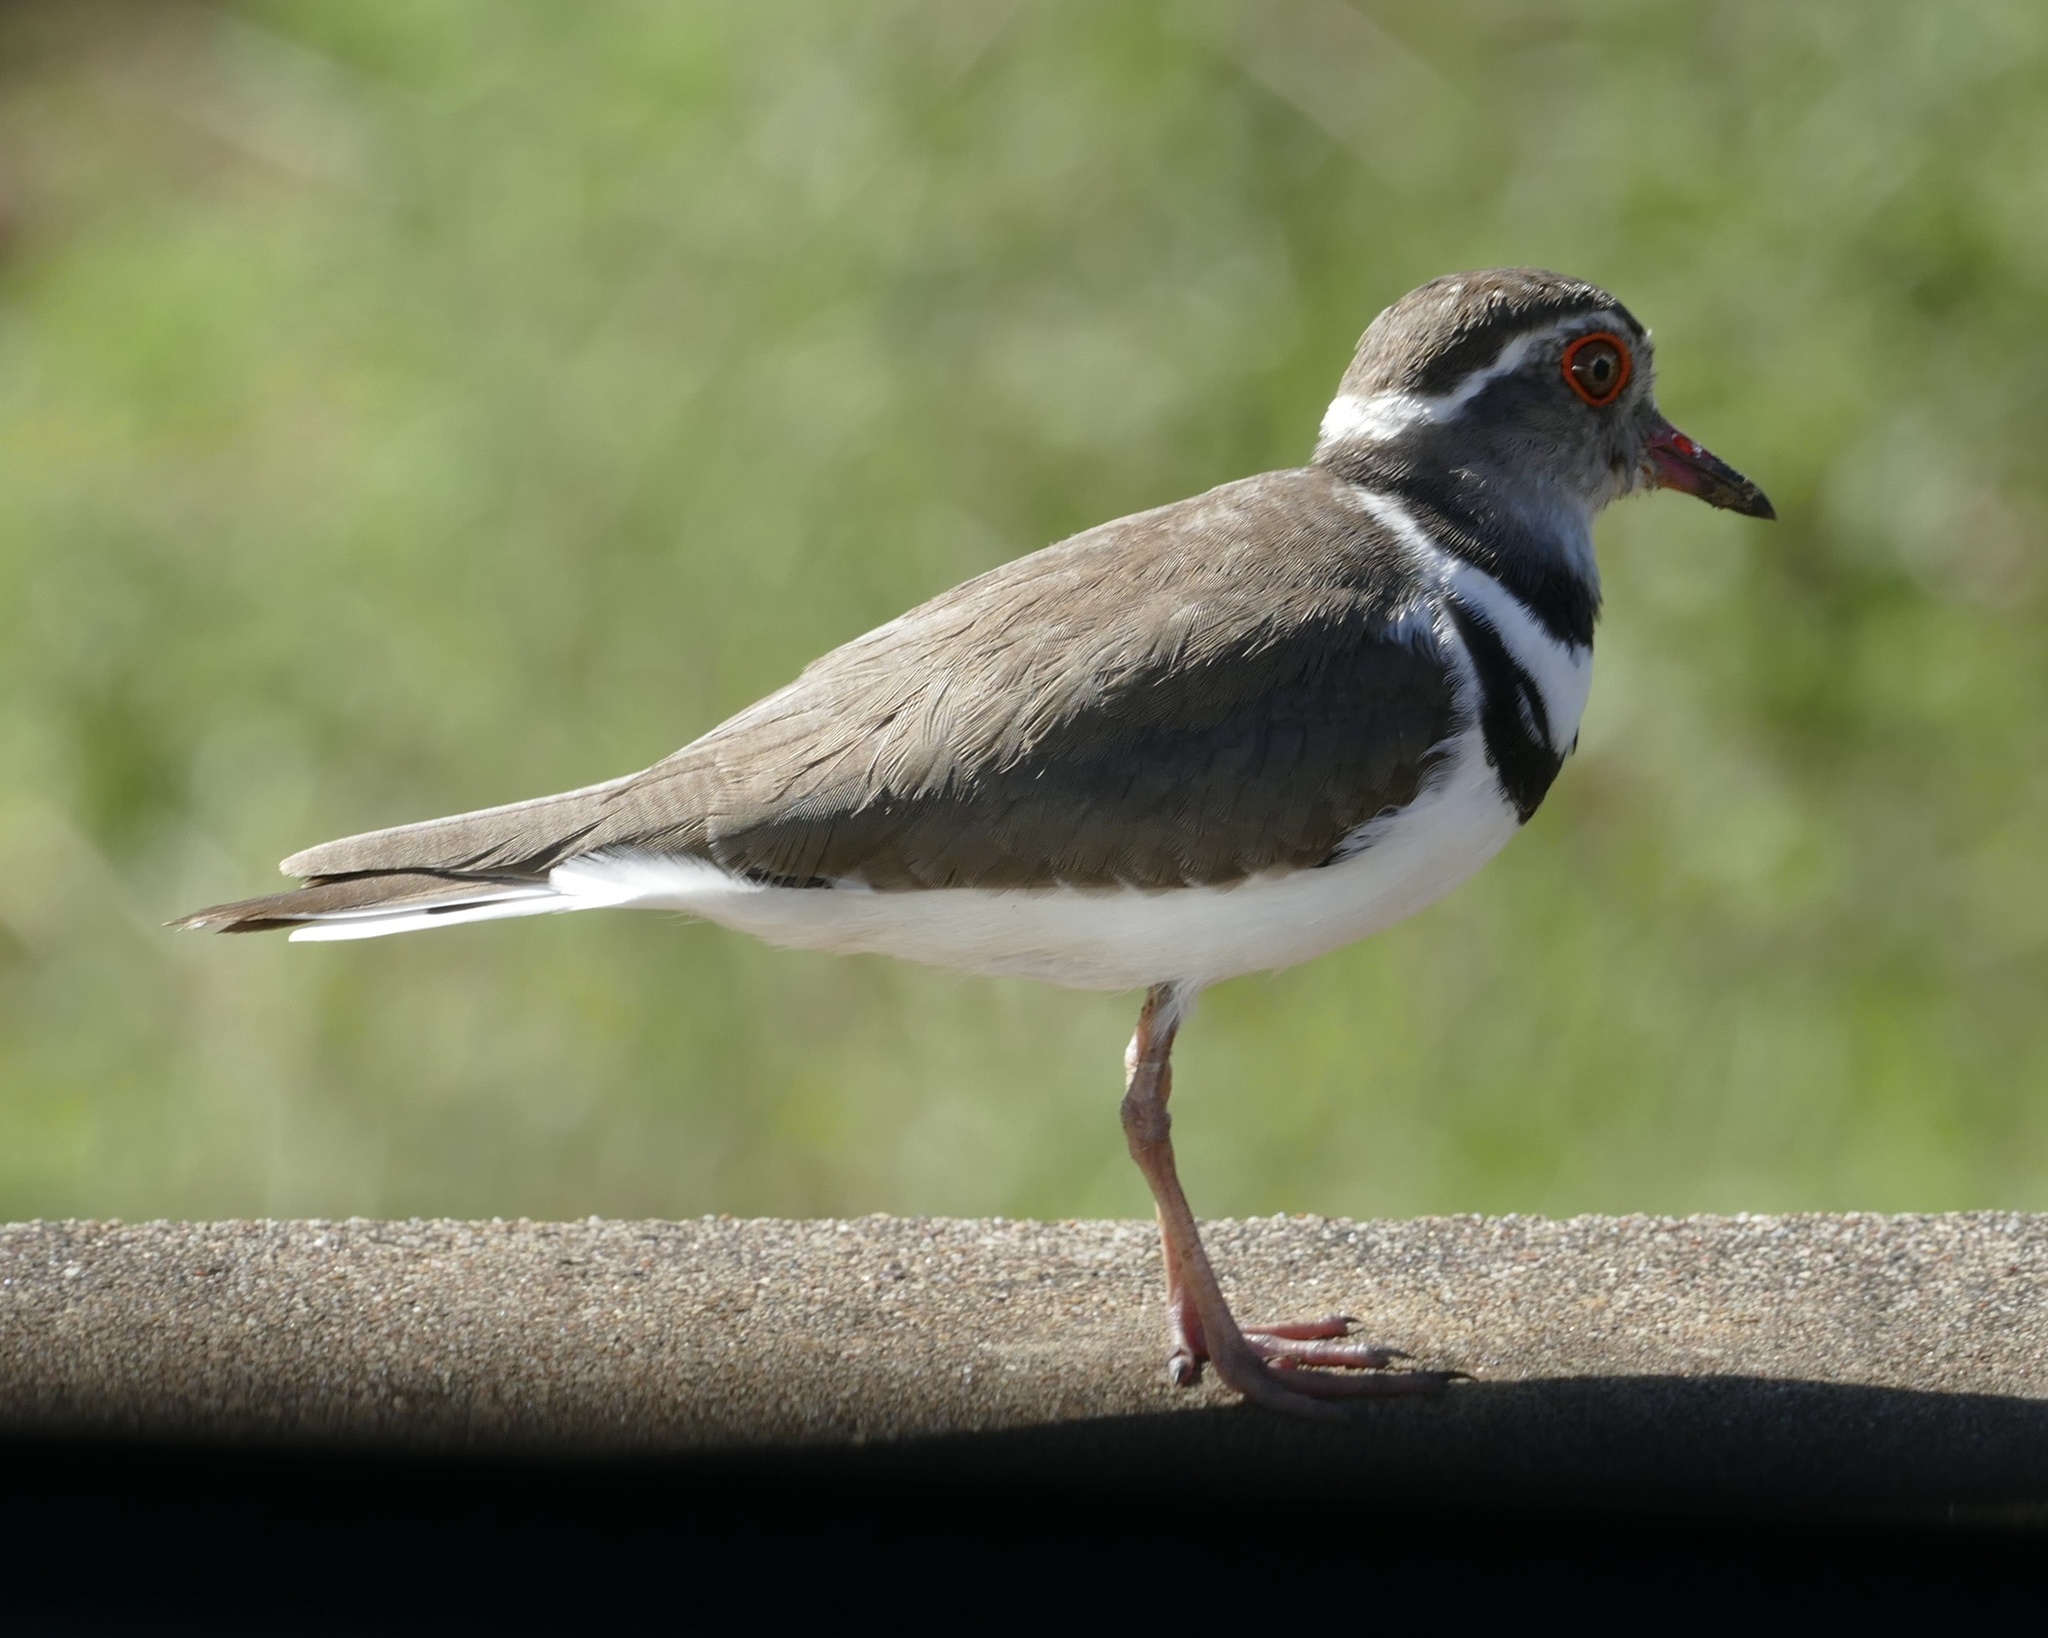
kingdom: Animalia
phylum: Chordata
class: Aves
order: Charadriiformes
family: Charadriidae
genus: Charadrius
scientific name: Charadrius tricollaris
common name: Three-banded plover
